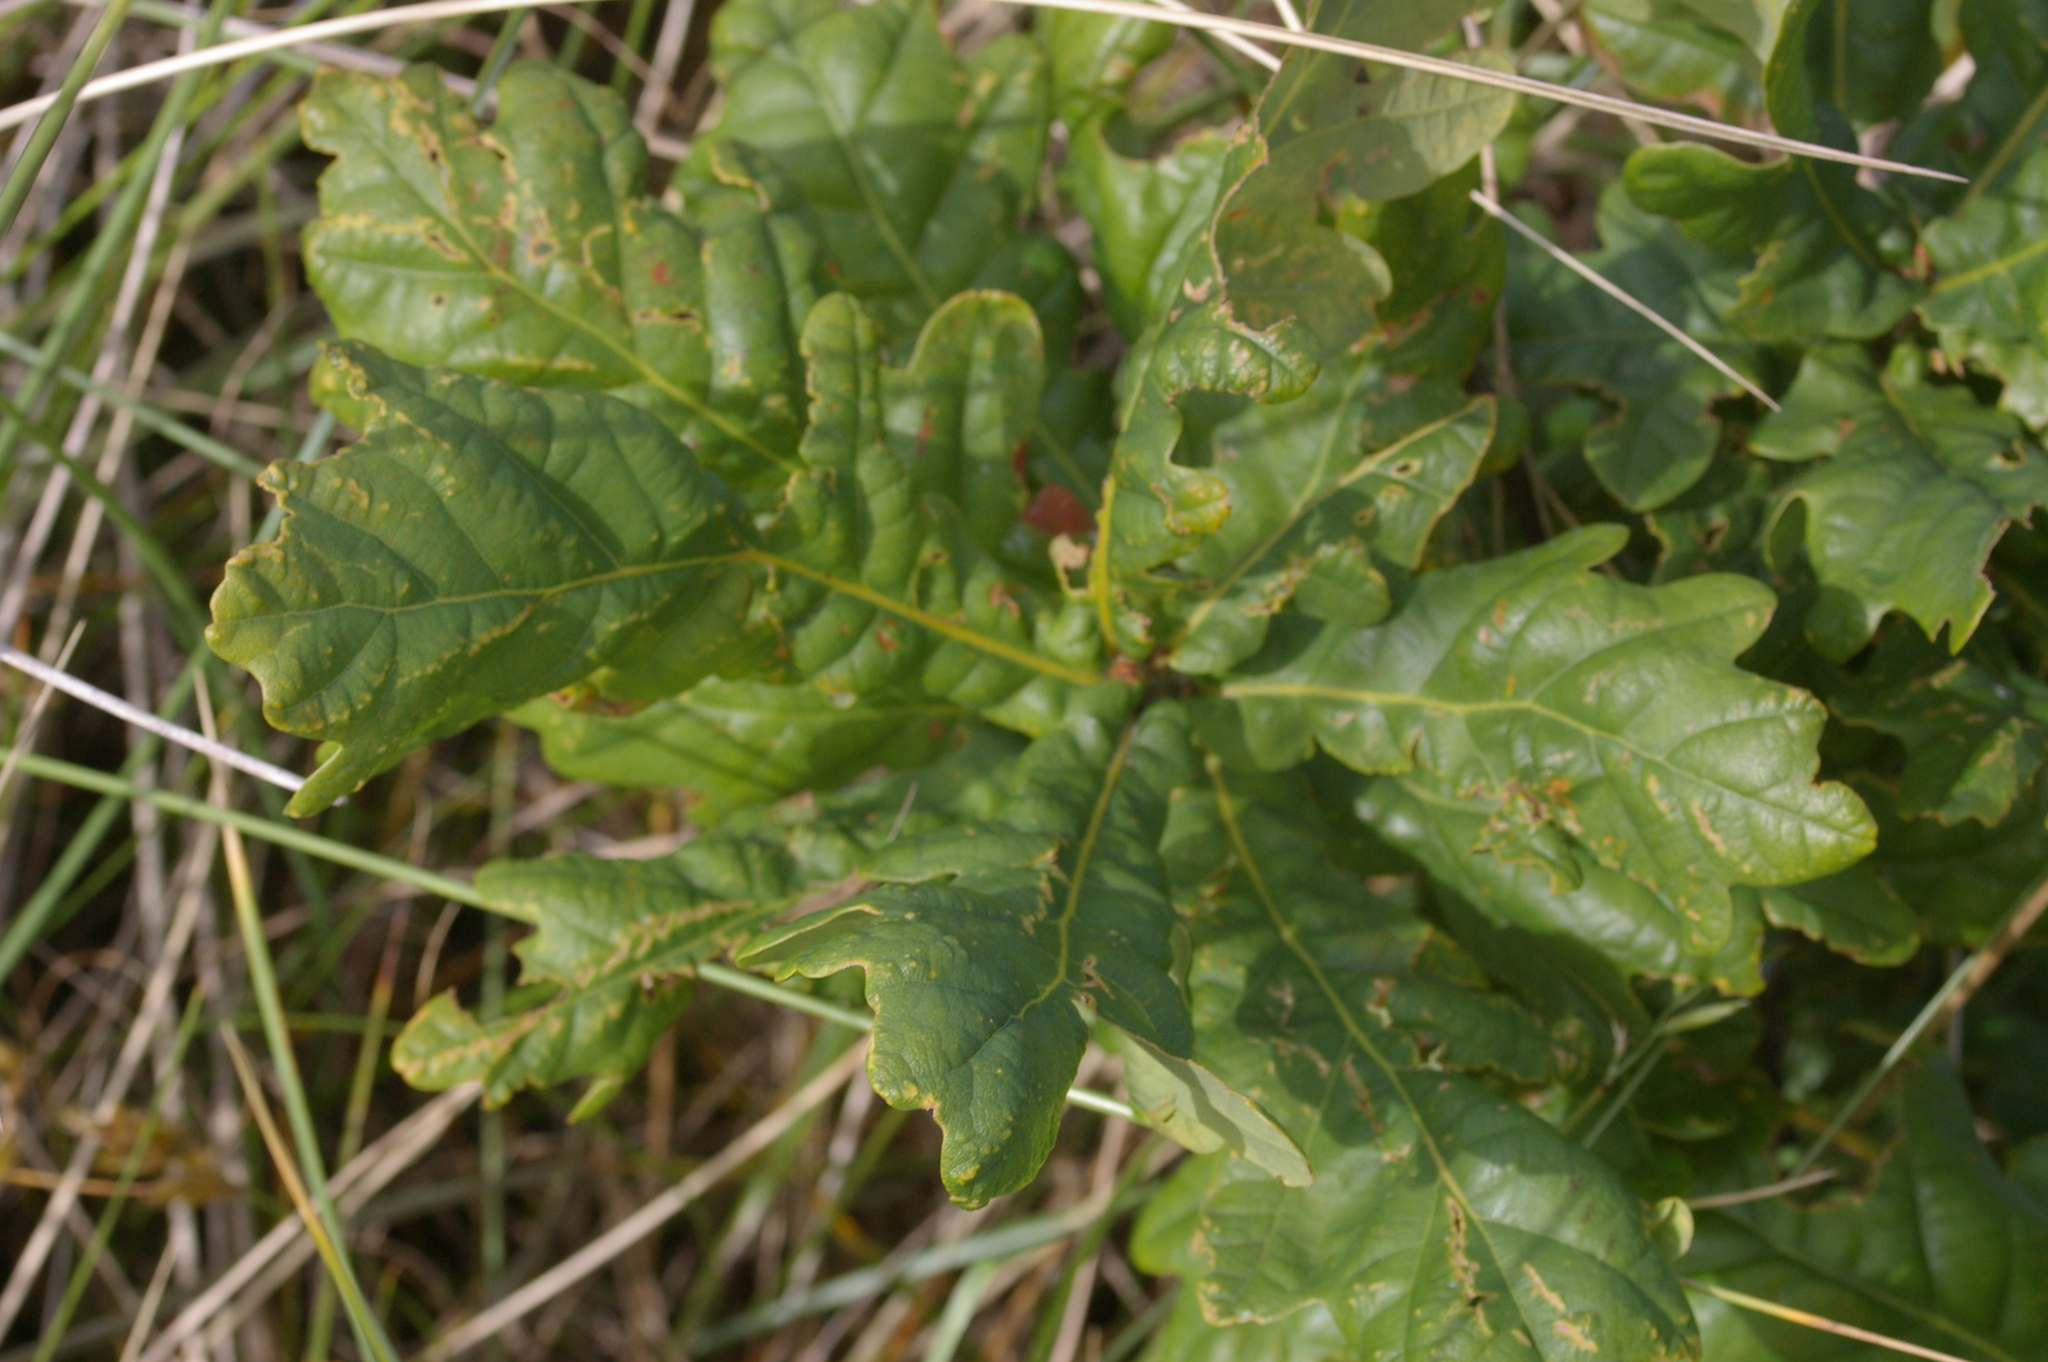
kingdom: Plantae
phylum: Tracheophyta
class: Magnoliopsida
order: Fagales
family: Fagaceae
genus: Quercus
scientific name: Quercus robur
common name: Pedunculate oak
